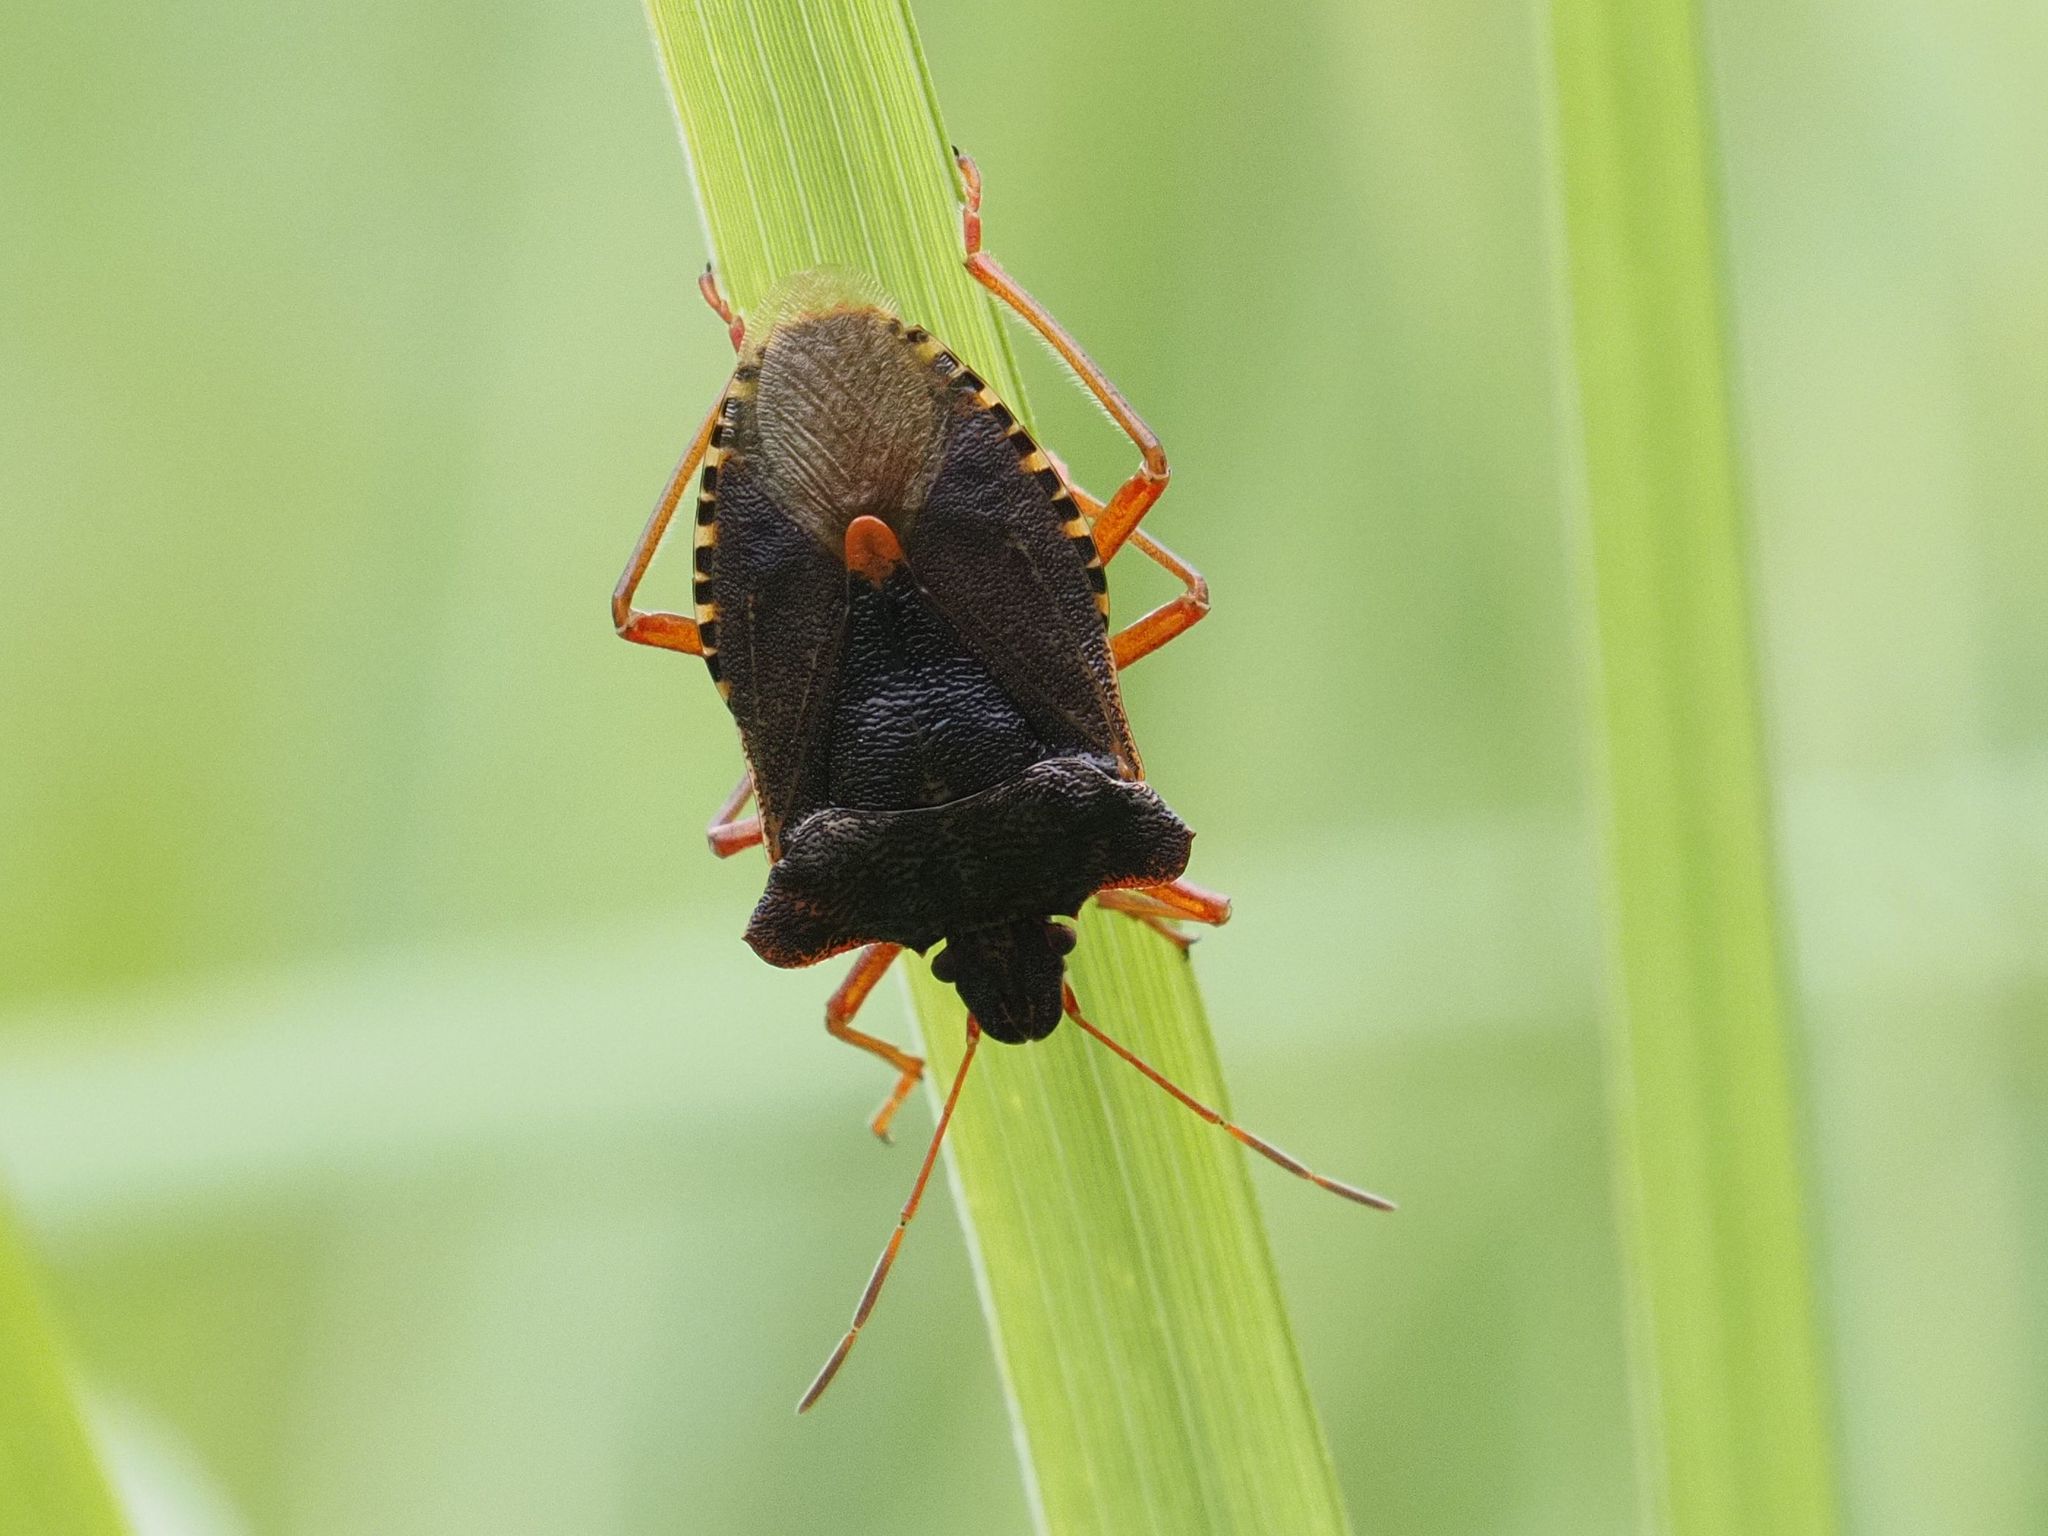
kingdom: Animalia
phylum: Arthropoda
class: Insecta
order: Hemiptera
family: Pentatomidae
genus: Pentatoma
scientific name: Pentatoma rufipes
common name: Forest bug
